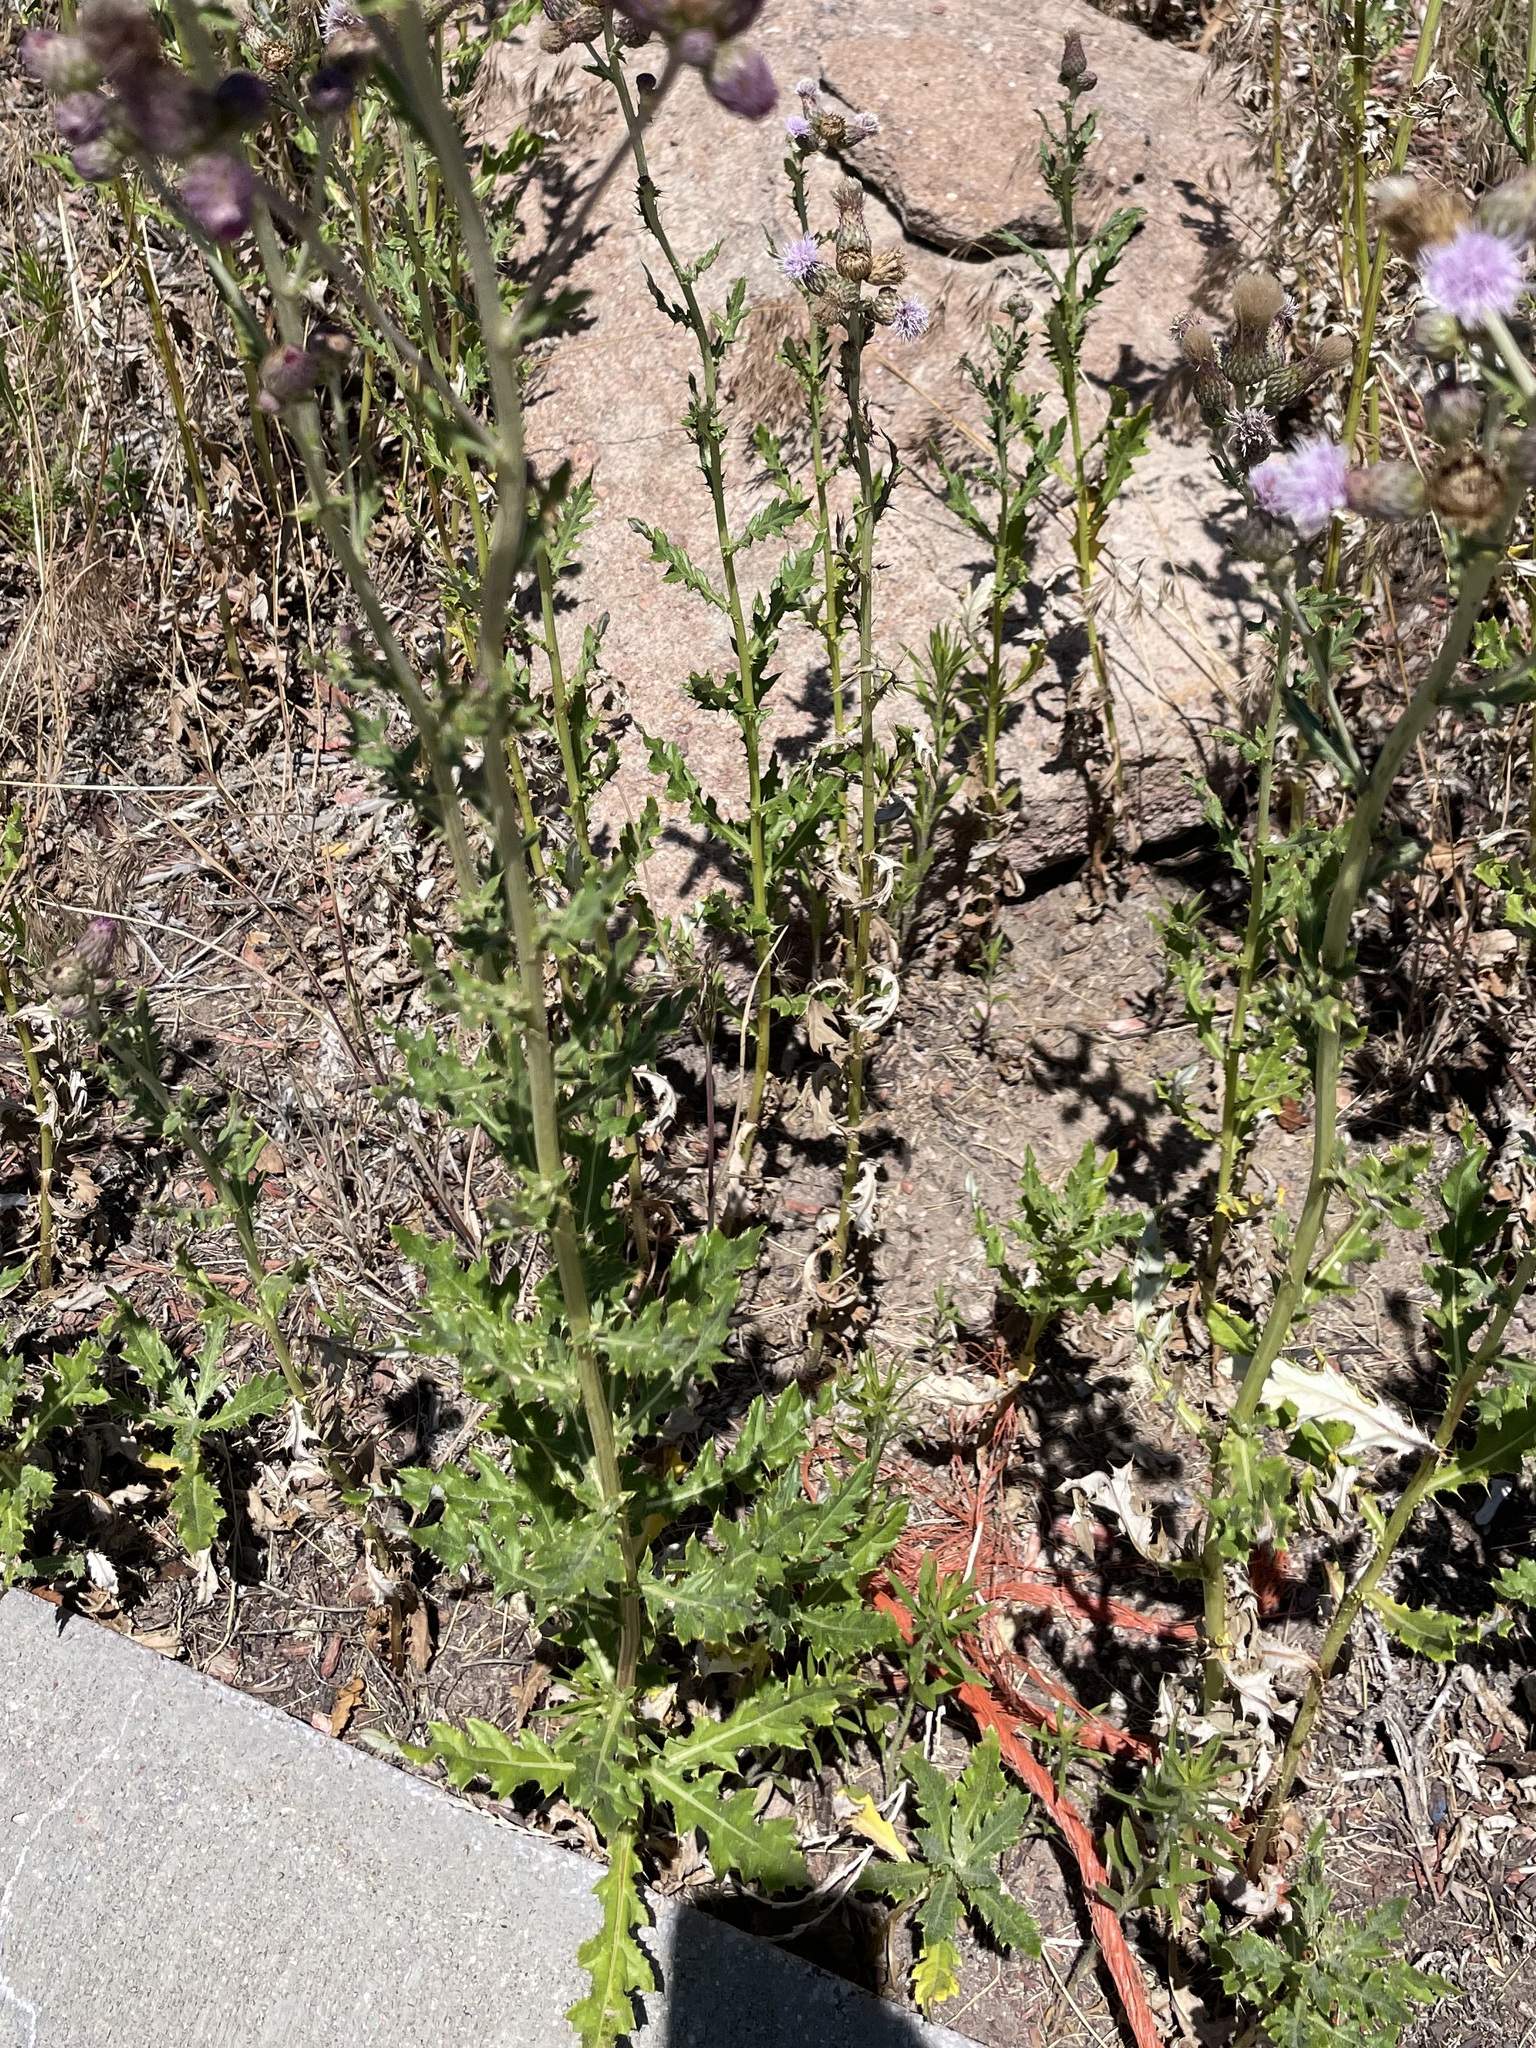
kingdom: Plantae
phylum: Tracheophyta
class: Magnoliopsida
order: Asterales
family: Asteraceae
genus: Cirsium
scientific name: Cirsium arvense
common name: Creeping thistle
